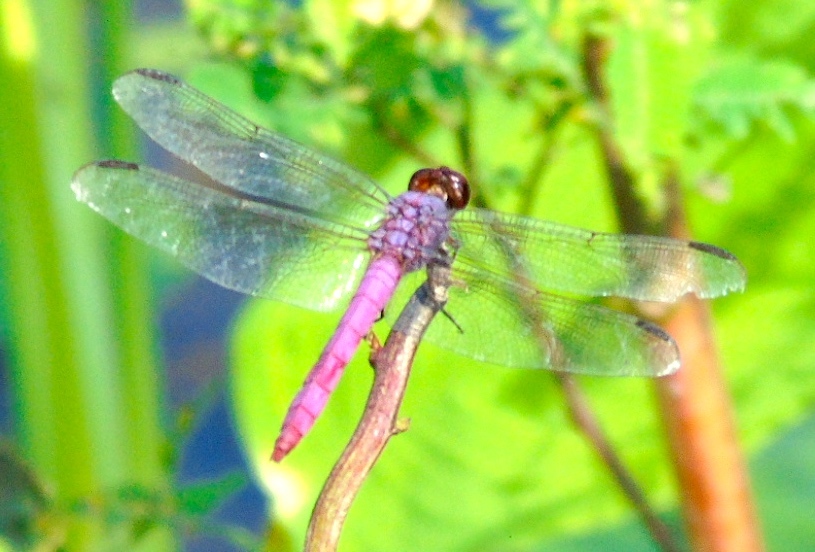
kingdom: Animalia
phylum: Arthropoda
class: Insecta
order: Odonata
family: Libellulidae
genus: Orthemis
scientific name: Orthemis ferruginea
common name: Roseate skimmer
